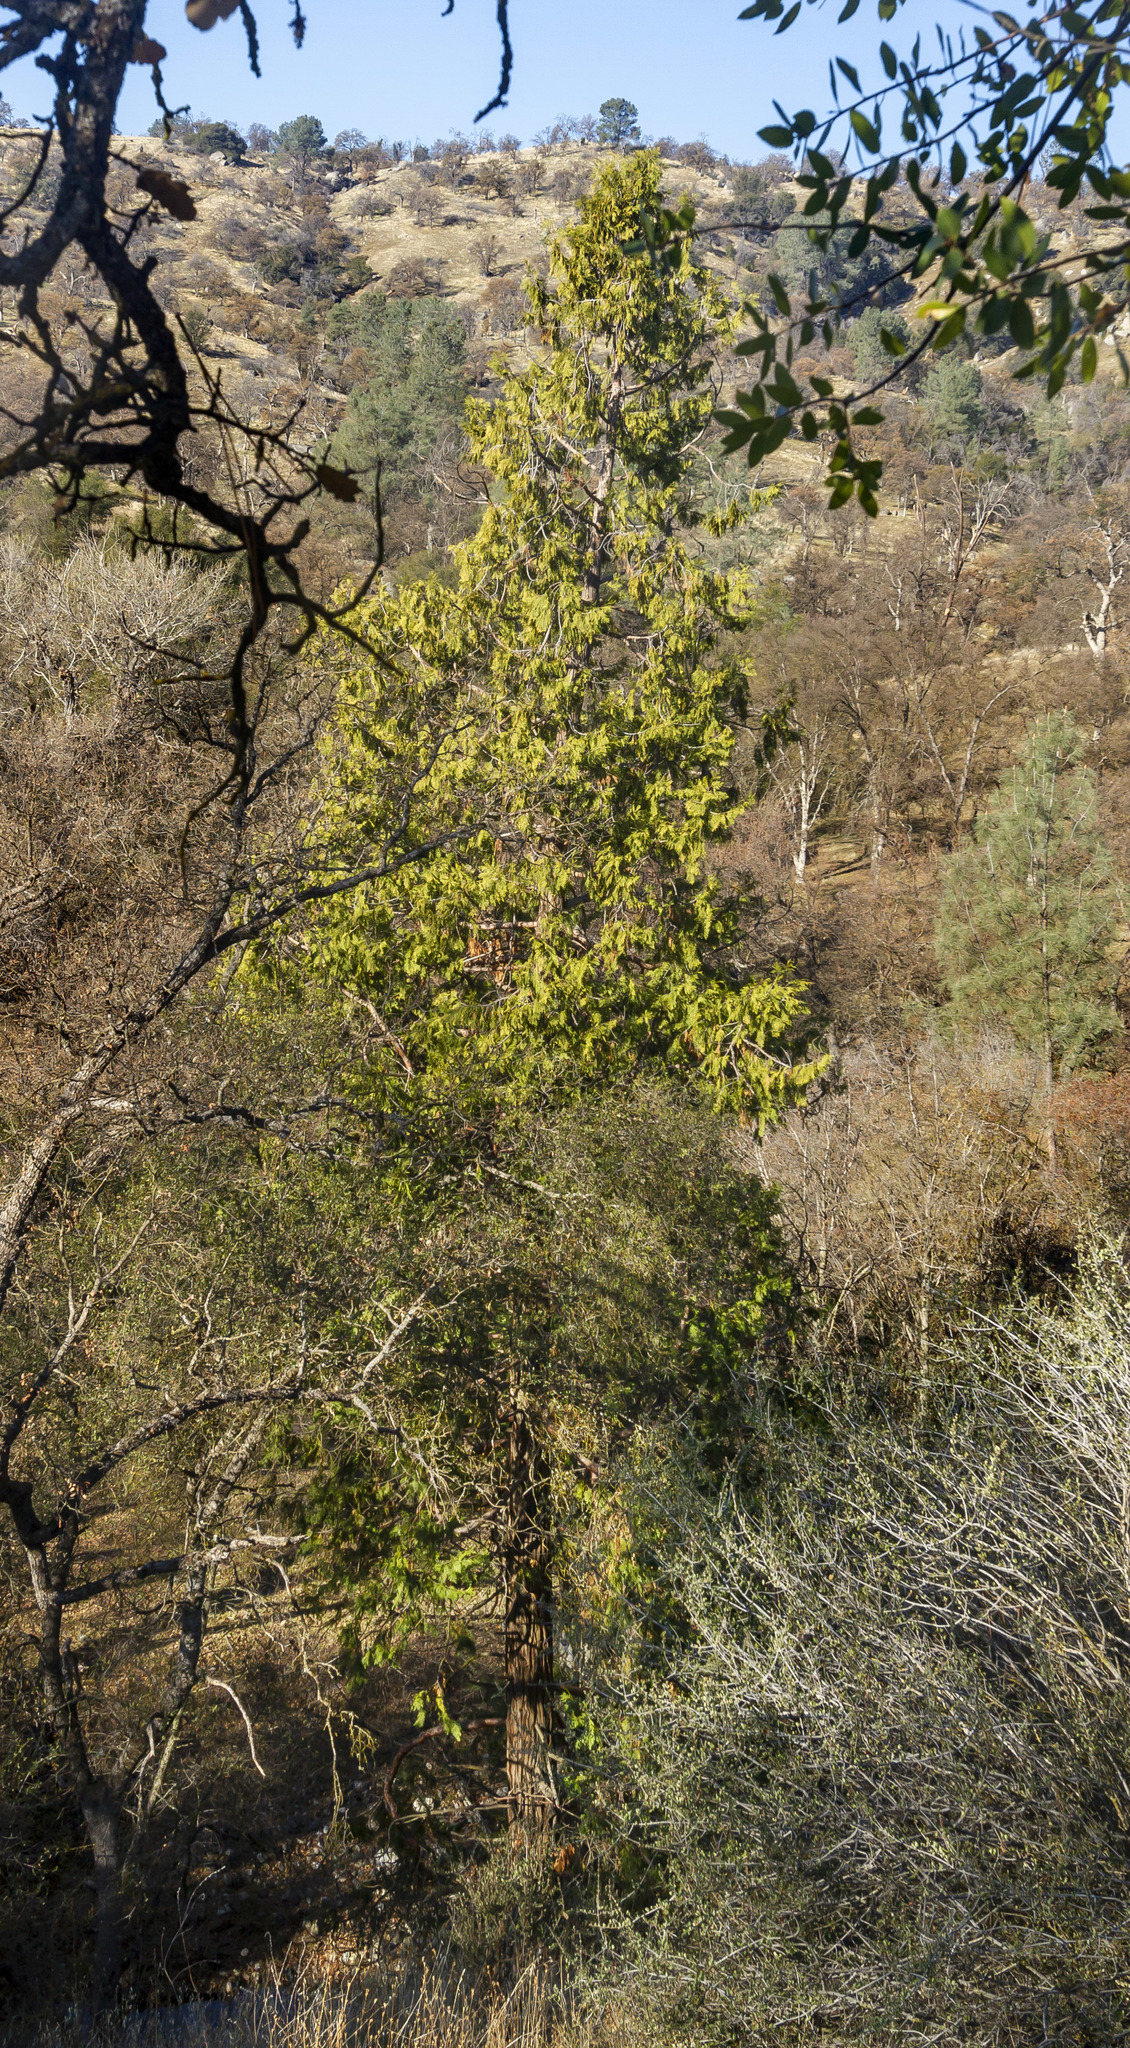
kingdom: Plantae
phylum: Tracheophyta
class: Pinopsida
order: Pinales
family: Cupressaceae
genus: Calocedrus
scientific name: Calocedrus decurrens
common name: Californian incense-cedar
